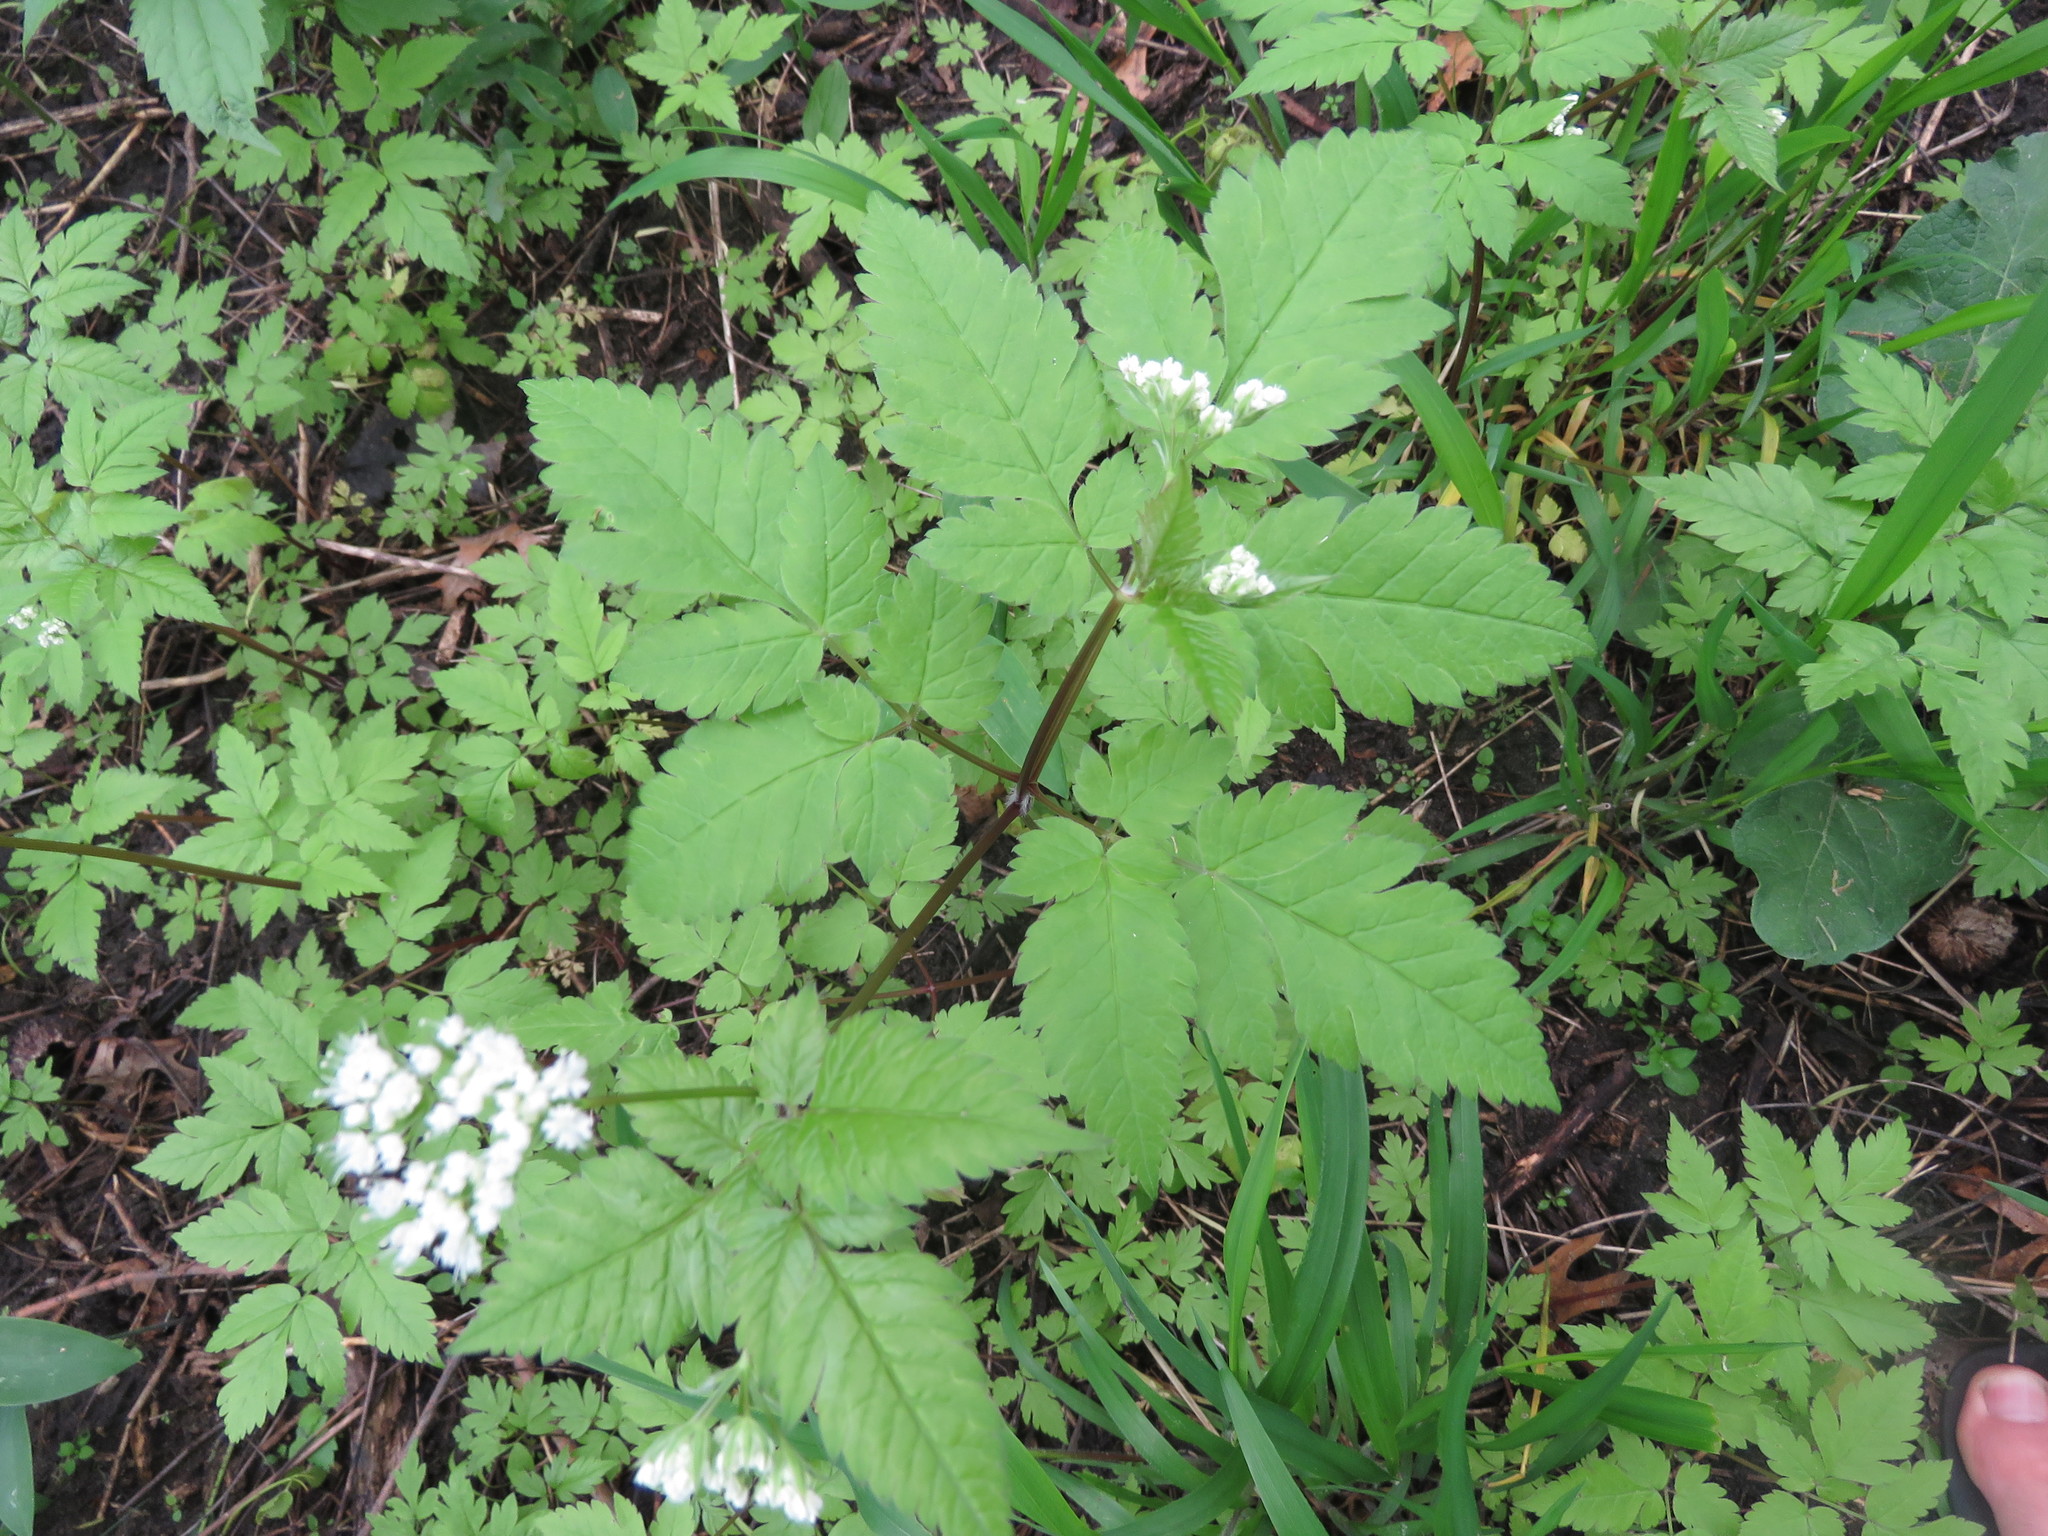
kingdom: Plantae
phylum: Tracheophyta
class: Magnoliopsida
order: Apiales
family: Apiaceae
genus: Osmorhiza
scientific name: Osmorhiza longistylis
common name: Smooth sweet cicely
